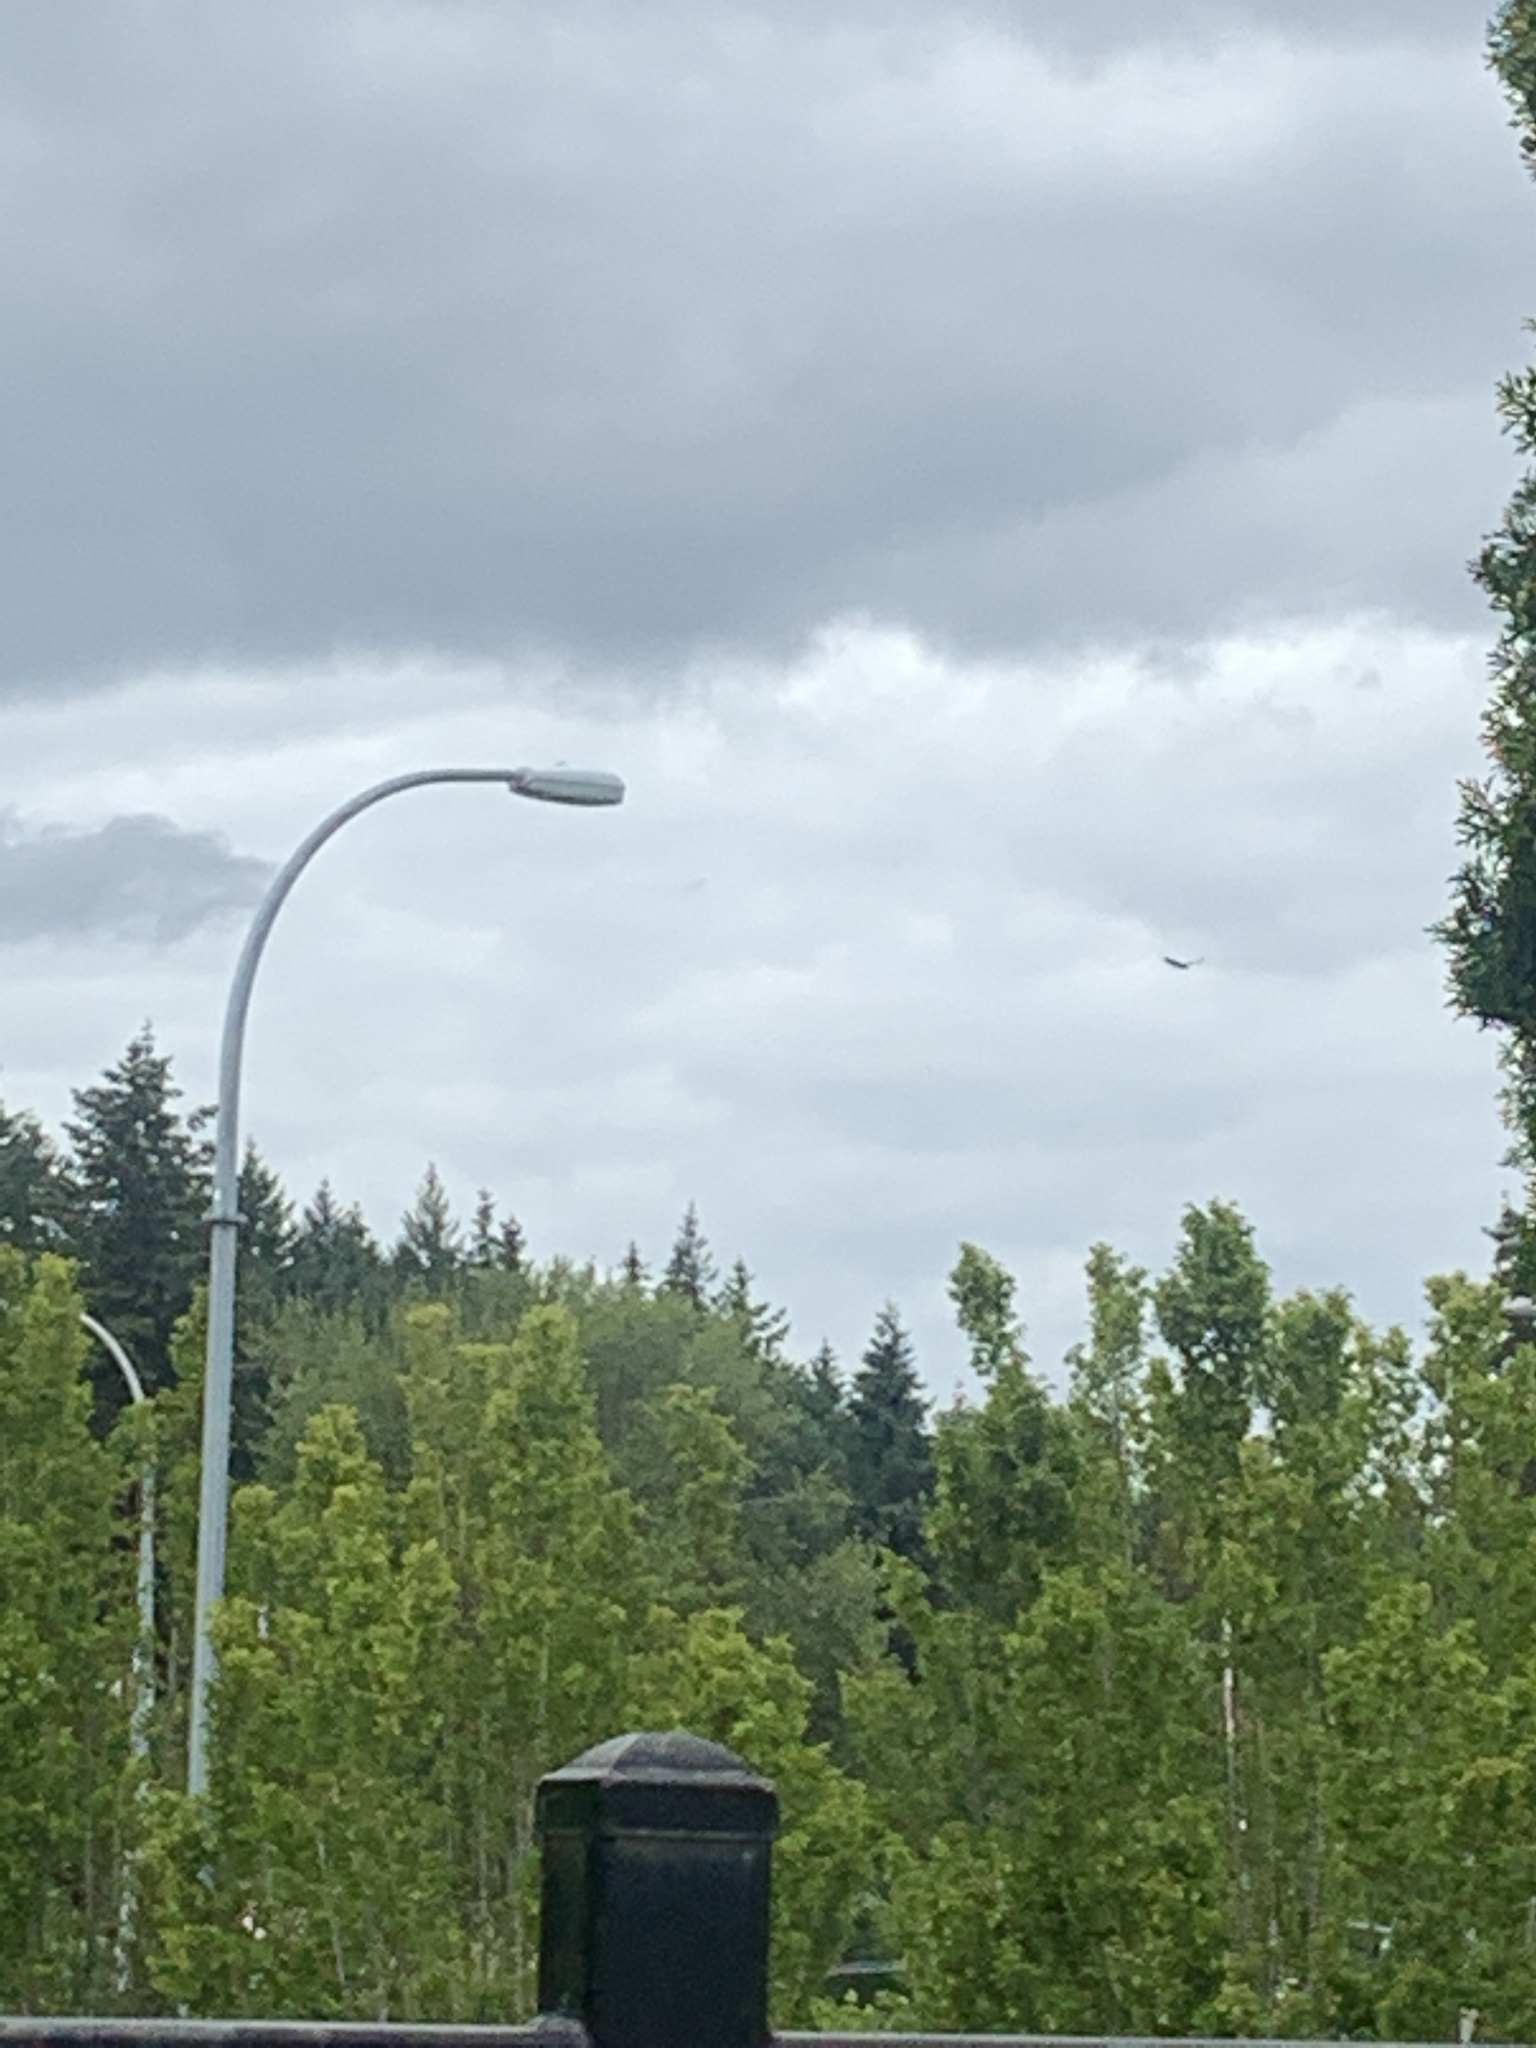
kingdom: Animalia
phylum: Chordata
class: Aves
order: Accipitriformes
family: Cathartidae
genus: Cathartes
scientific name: Cathartes aura
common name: Turkey vulture
